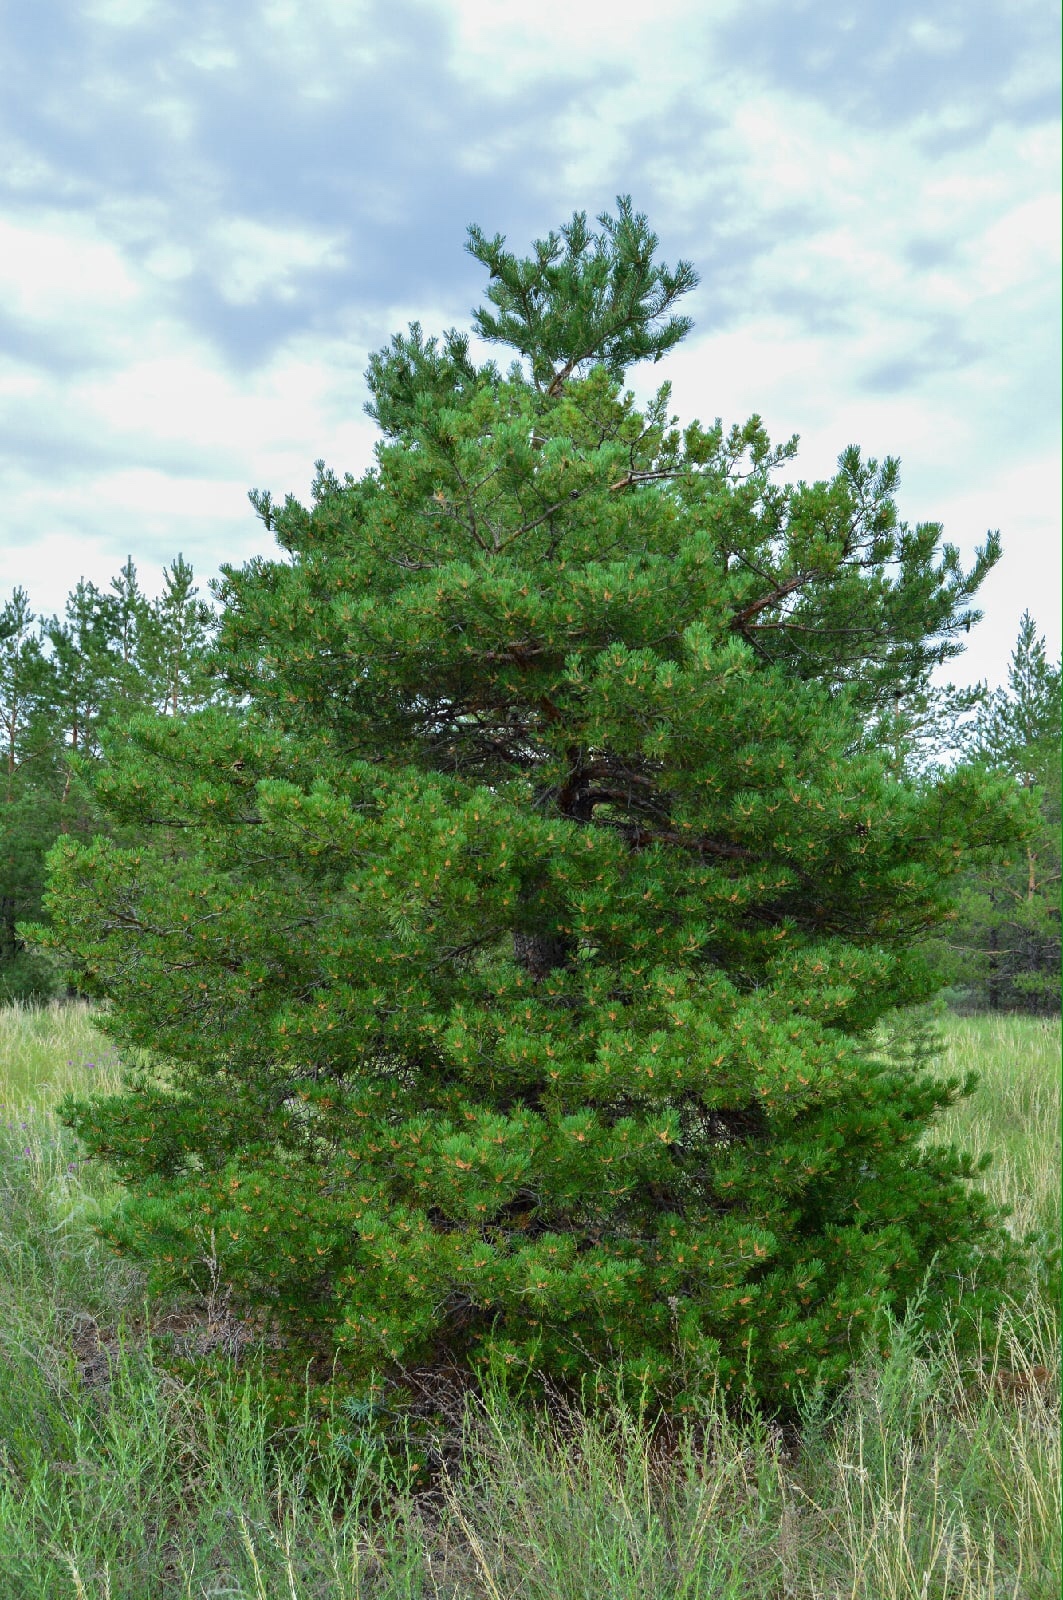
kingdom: Plantae
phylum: Tracheophyta
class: Pinopsida
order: Pinales
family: Pinaceae
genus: Pinus
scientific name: Pinus sylvestris
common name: Scots pine
